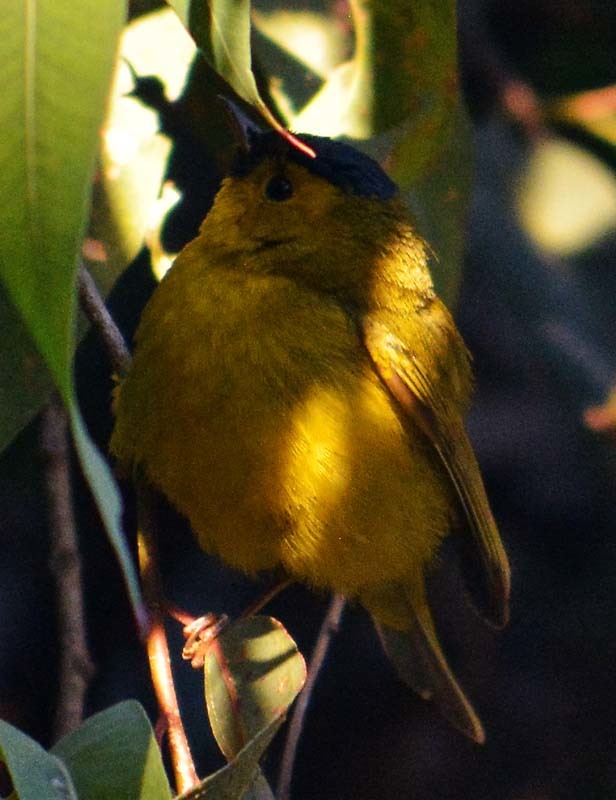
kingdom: Animalia
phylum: Chordata
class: Aves
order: Passeriformes
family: Parulidae
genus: Cardellina
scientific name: Cardellina pusilla
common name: Wilson's warbler
